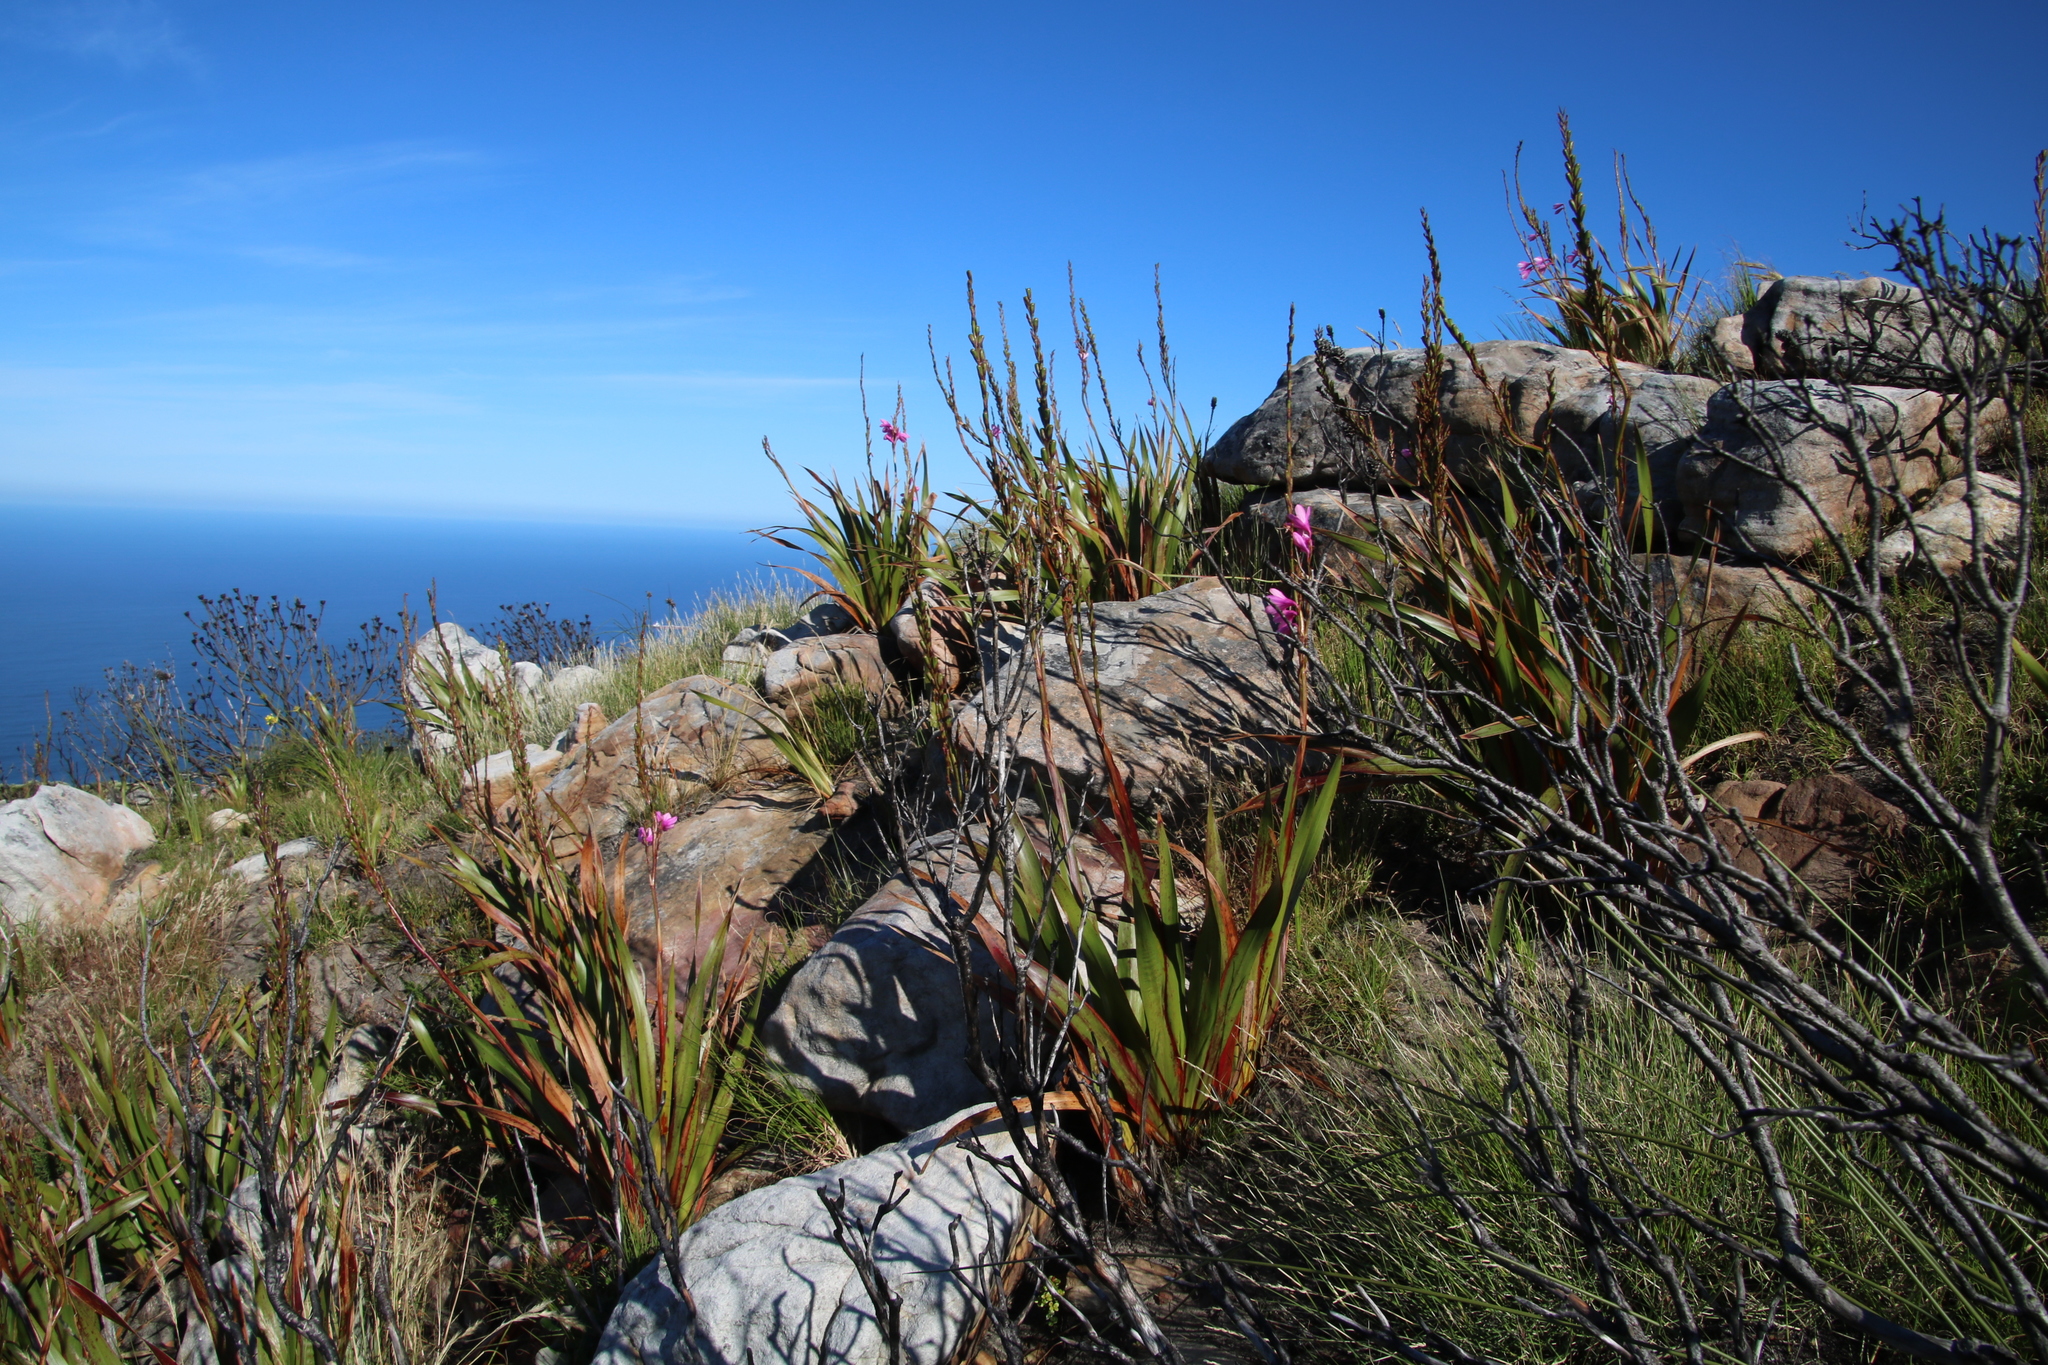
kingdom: Plantae
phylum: Tracheophyta
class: Liliopsida
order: Asparagales
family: Iridaceae
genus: Watsonia
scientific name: Watsonia borbonica
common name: Bugle-lily
